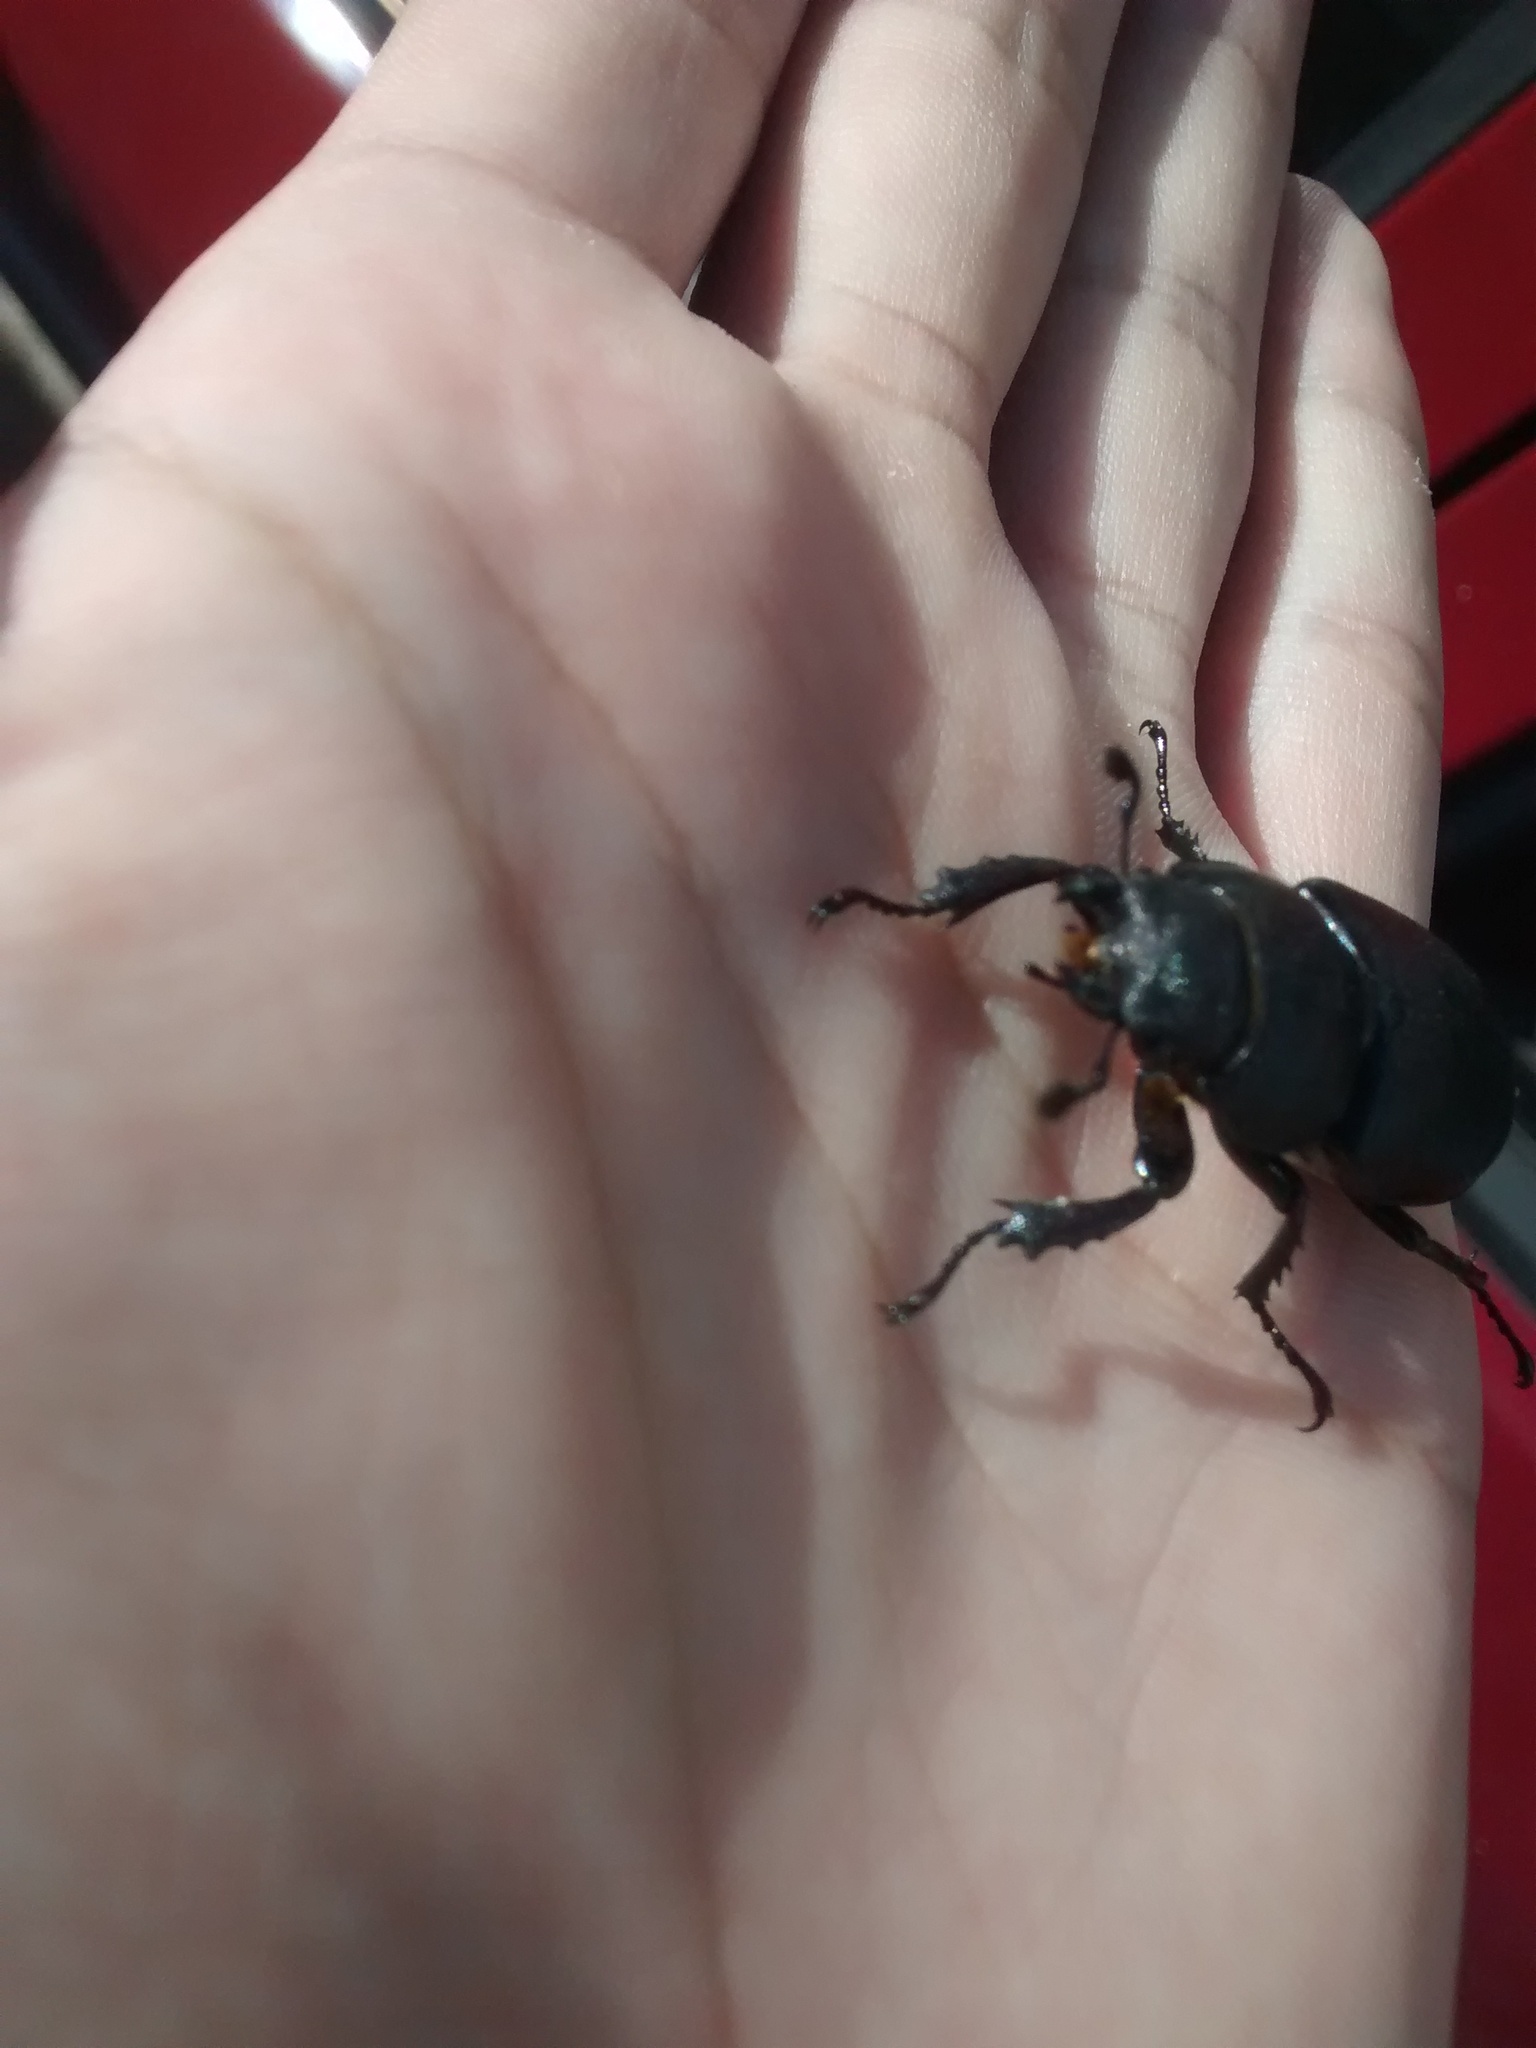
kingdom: Animalia
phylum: Arthropoda
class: Insecta
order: Coleoptera
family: Lucanidae
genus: Lucanus
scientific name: Lucanus cervus
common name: Stag beetle
